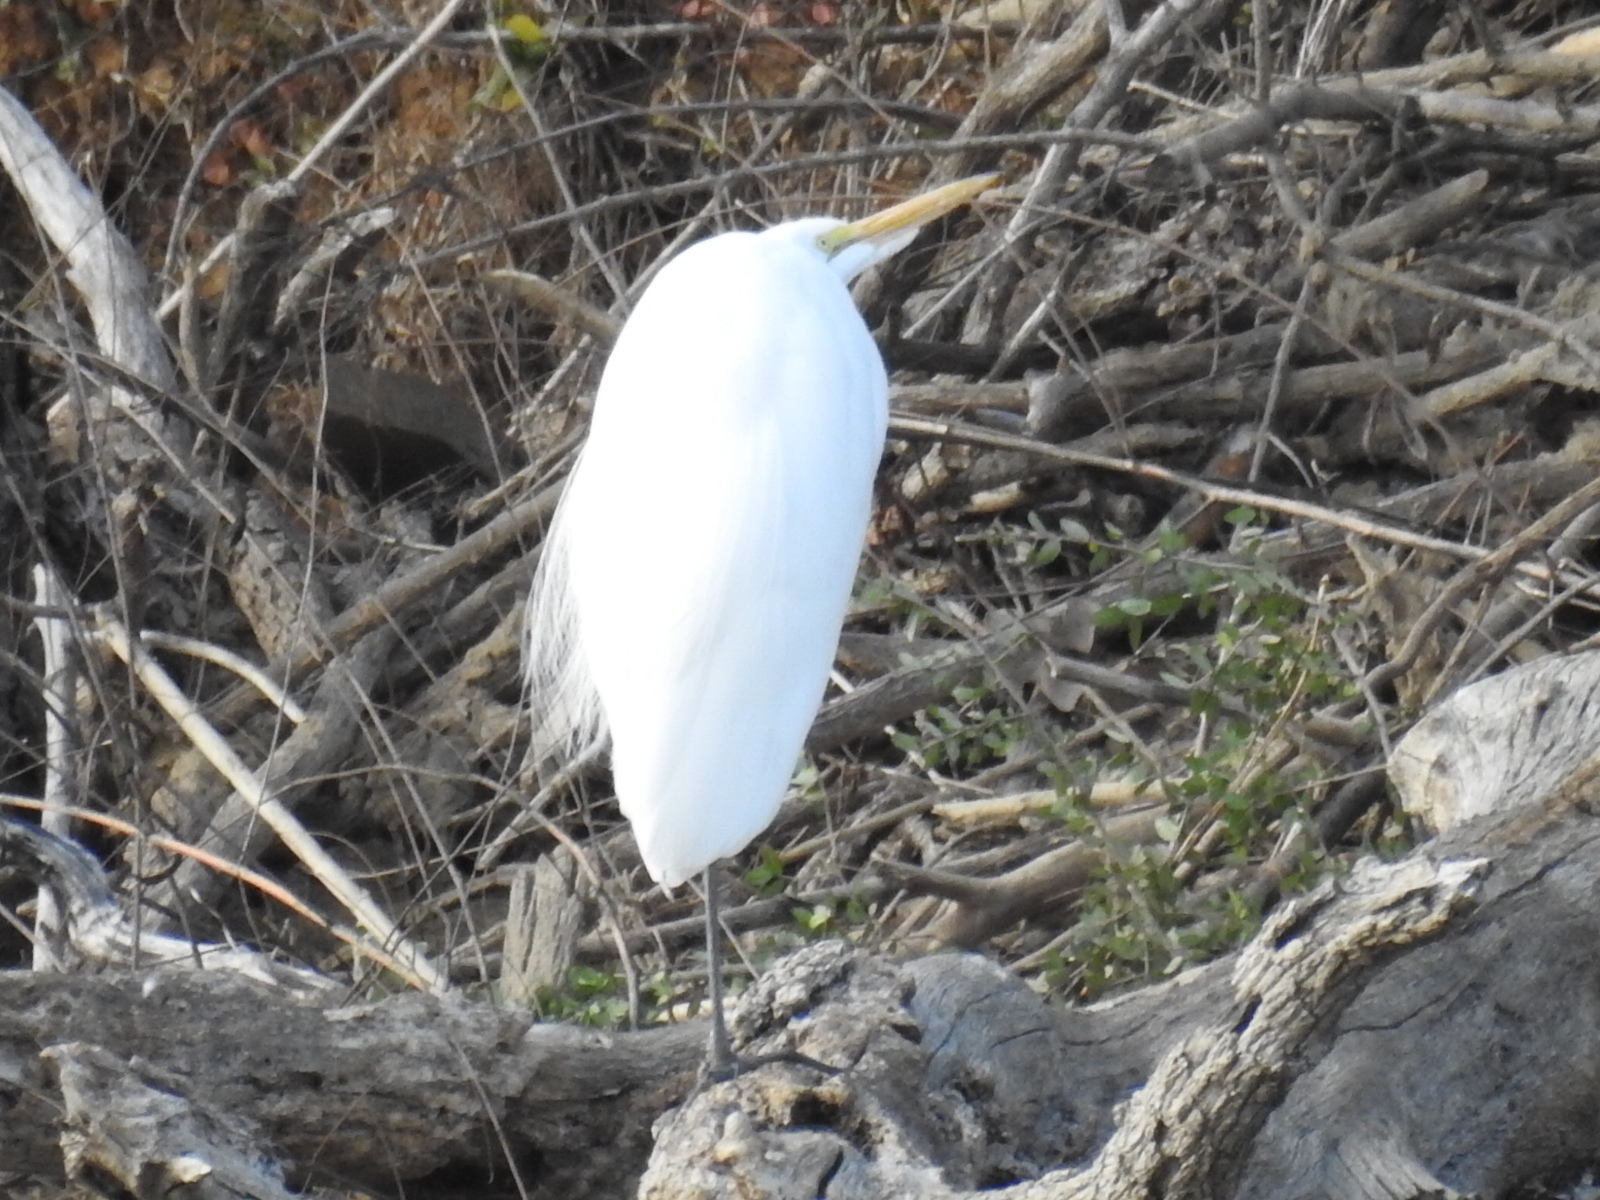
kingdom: Animalia
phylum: Chordata
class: Aves
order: Pelecaniformes
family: Ardeidae
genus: Ardea
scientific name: Ardea alba
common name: Great egret
